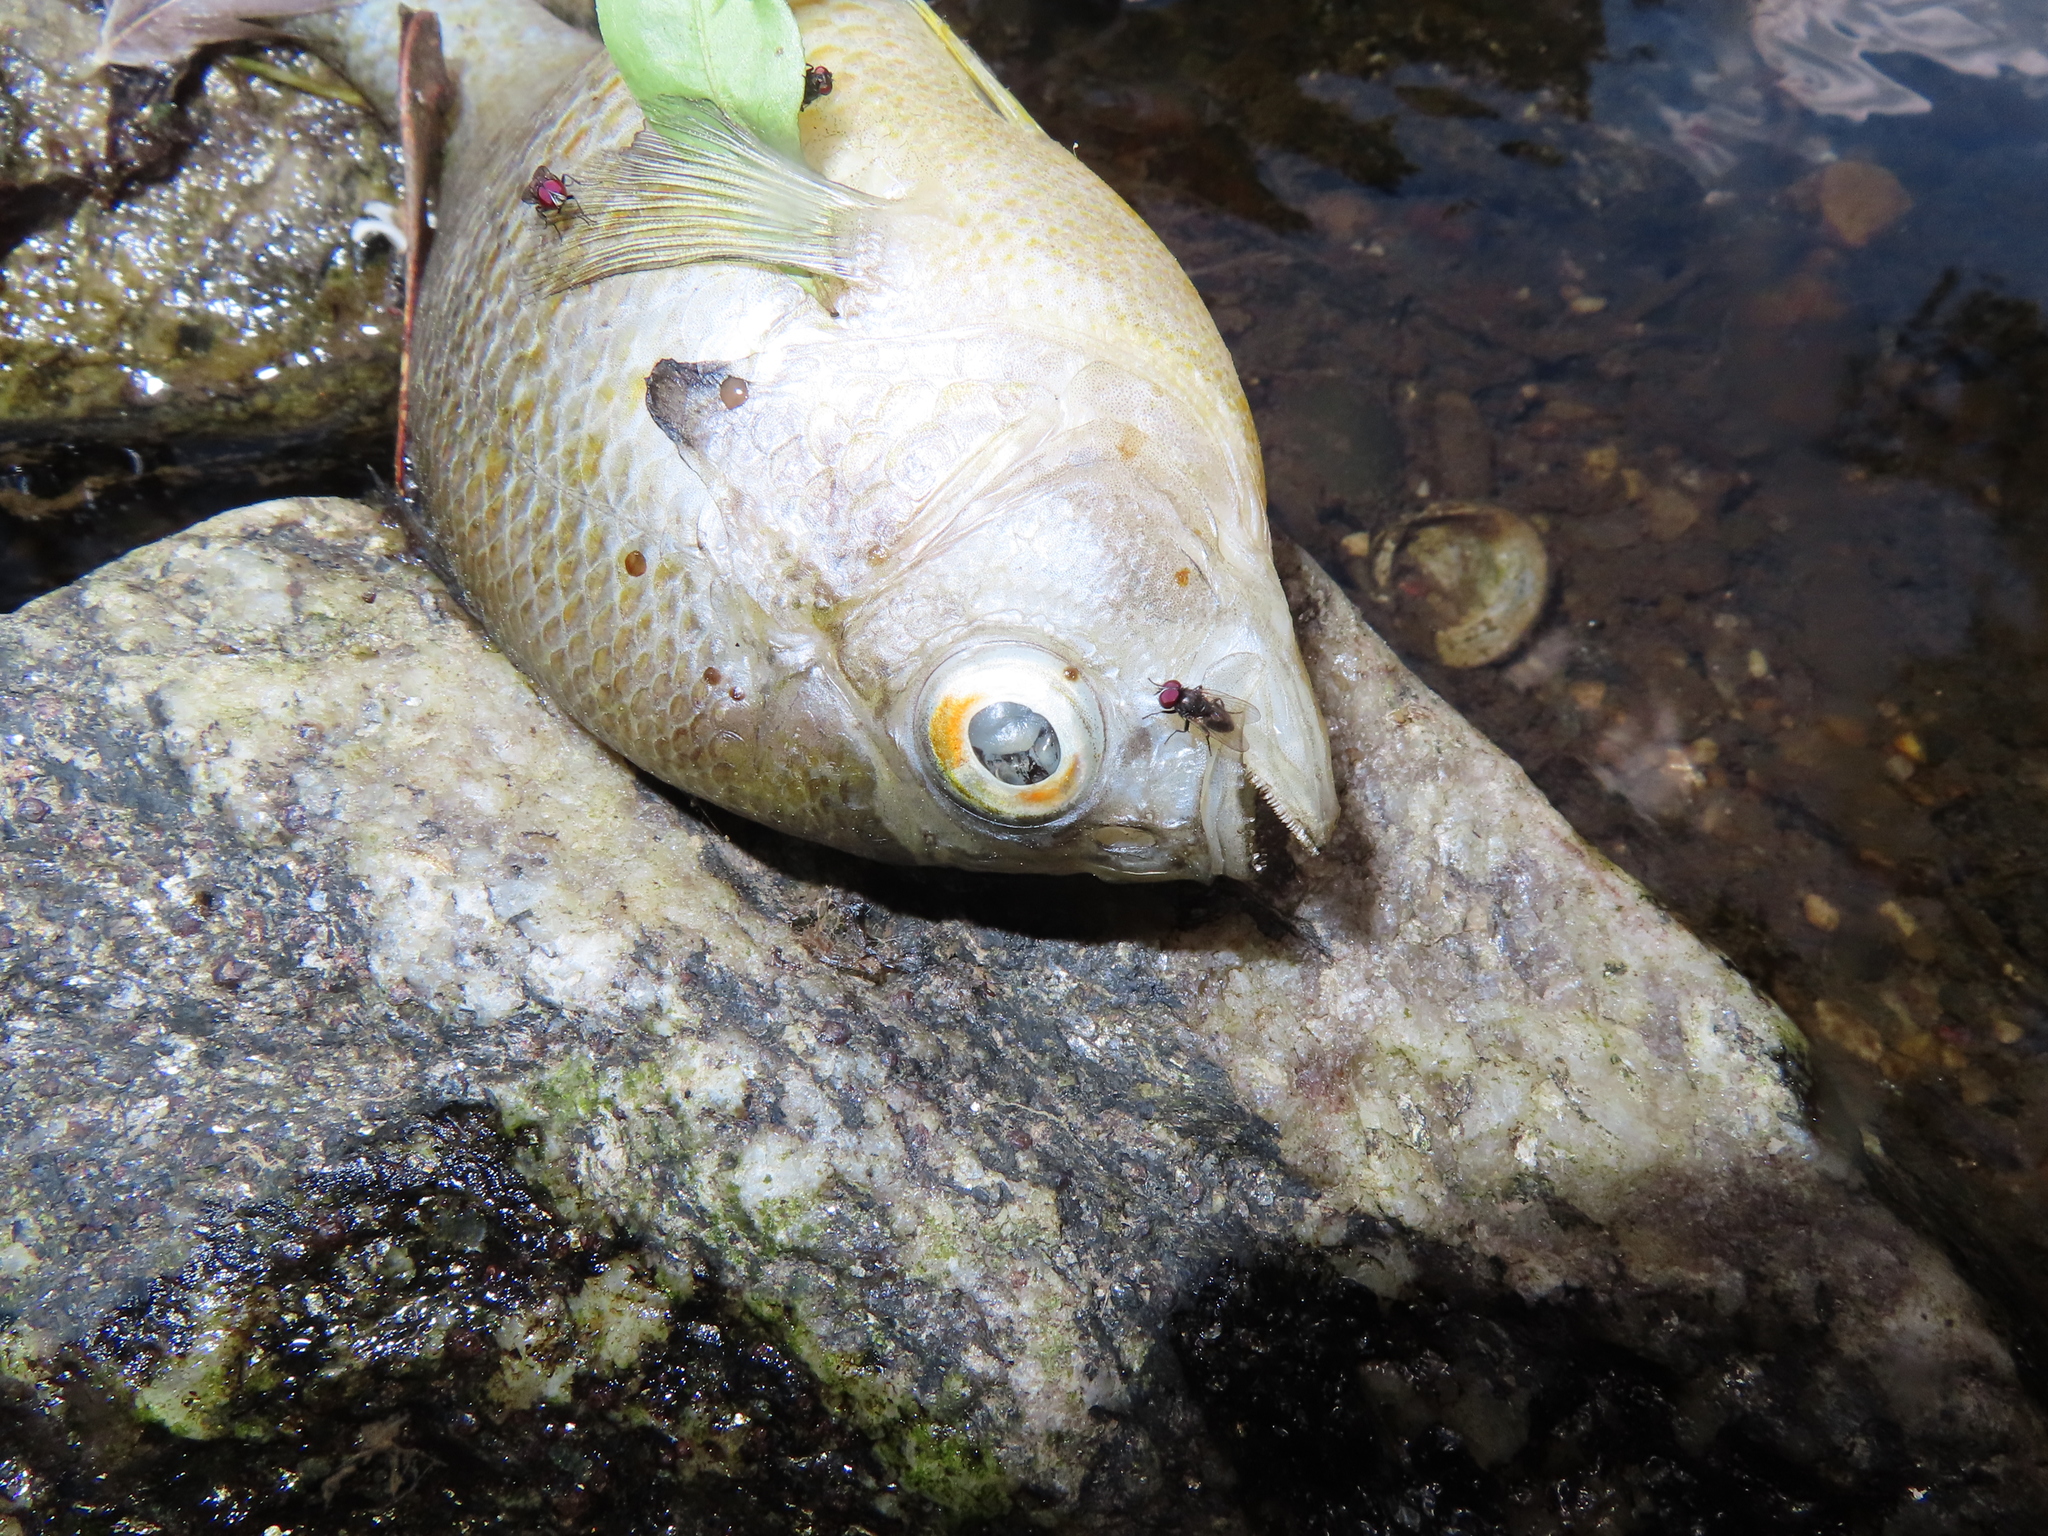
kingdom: Animalia
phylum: Chordata
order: Perciformes
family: Centrarchidae
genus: Lepomis
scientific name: Lepomis auritus
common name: Redbreast sunfish
